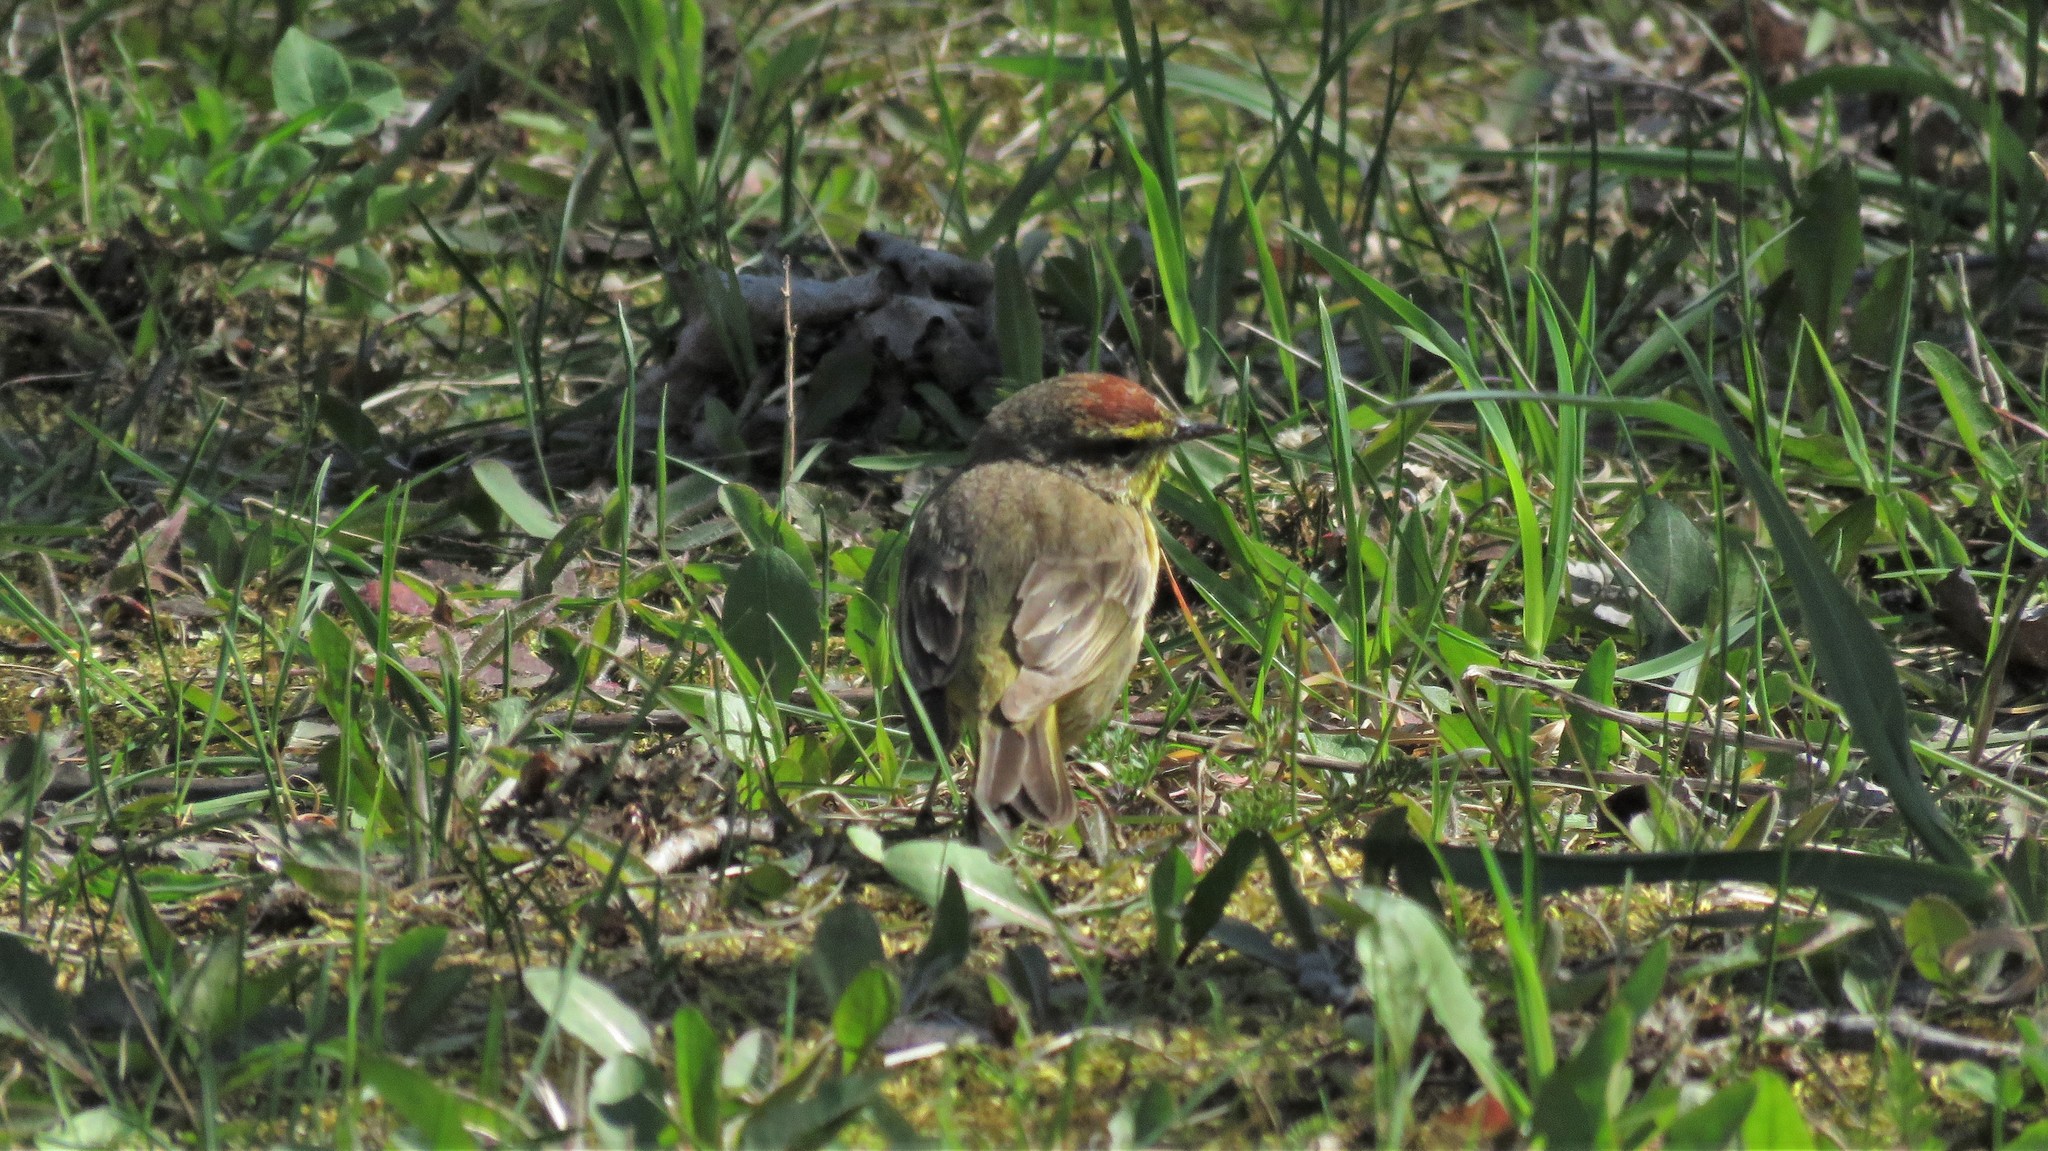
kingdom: Animalia
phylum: Chordata
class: Aves
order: Passeriformes
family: Parulidae
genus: Setophaga
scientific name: Setophaga palmarum
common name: Palm warbler
